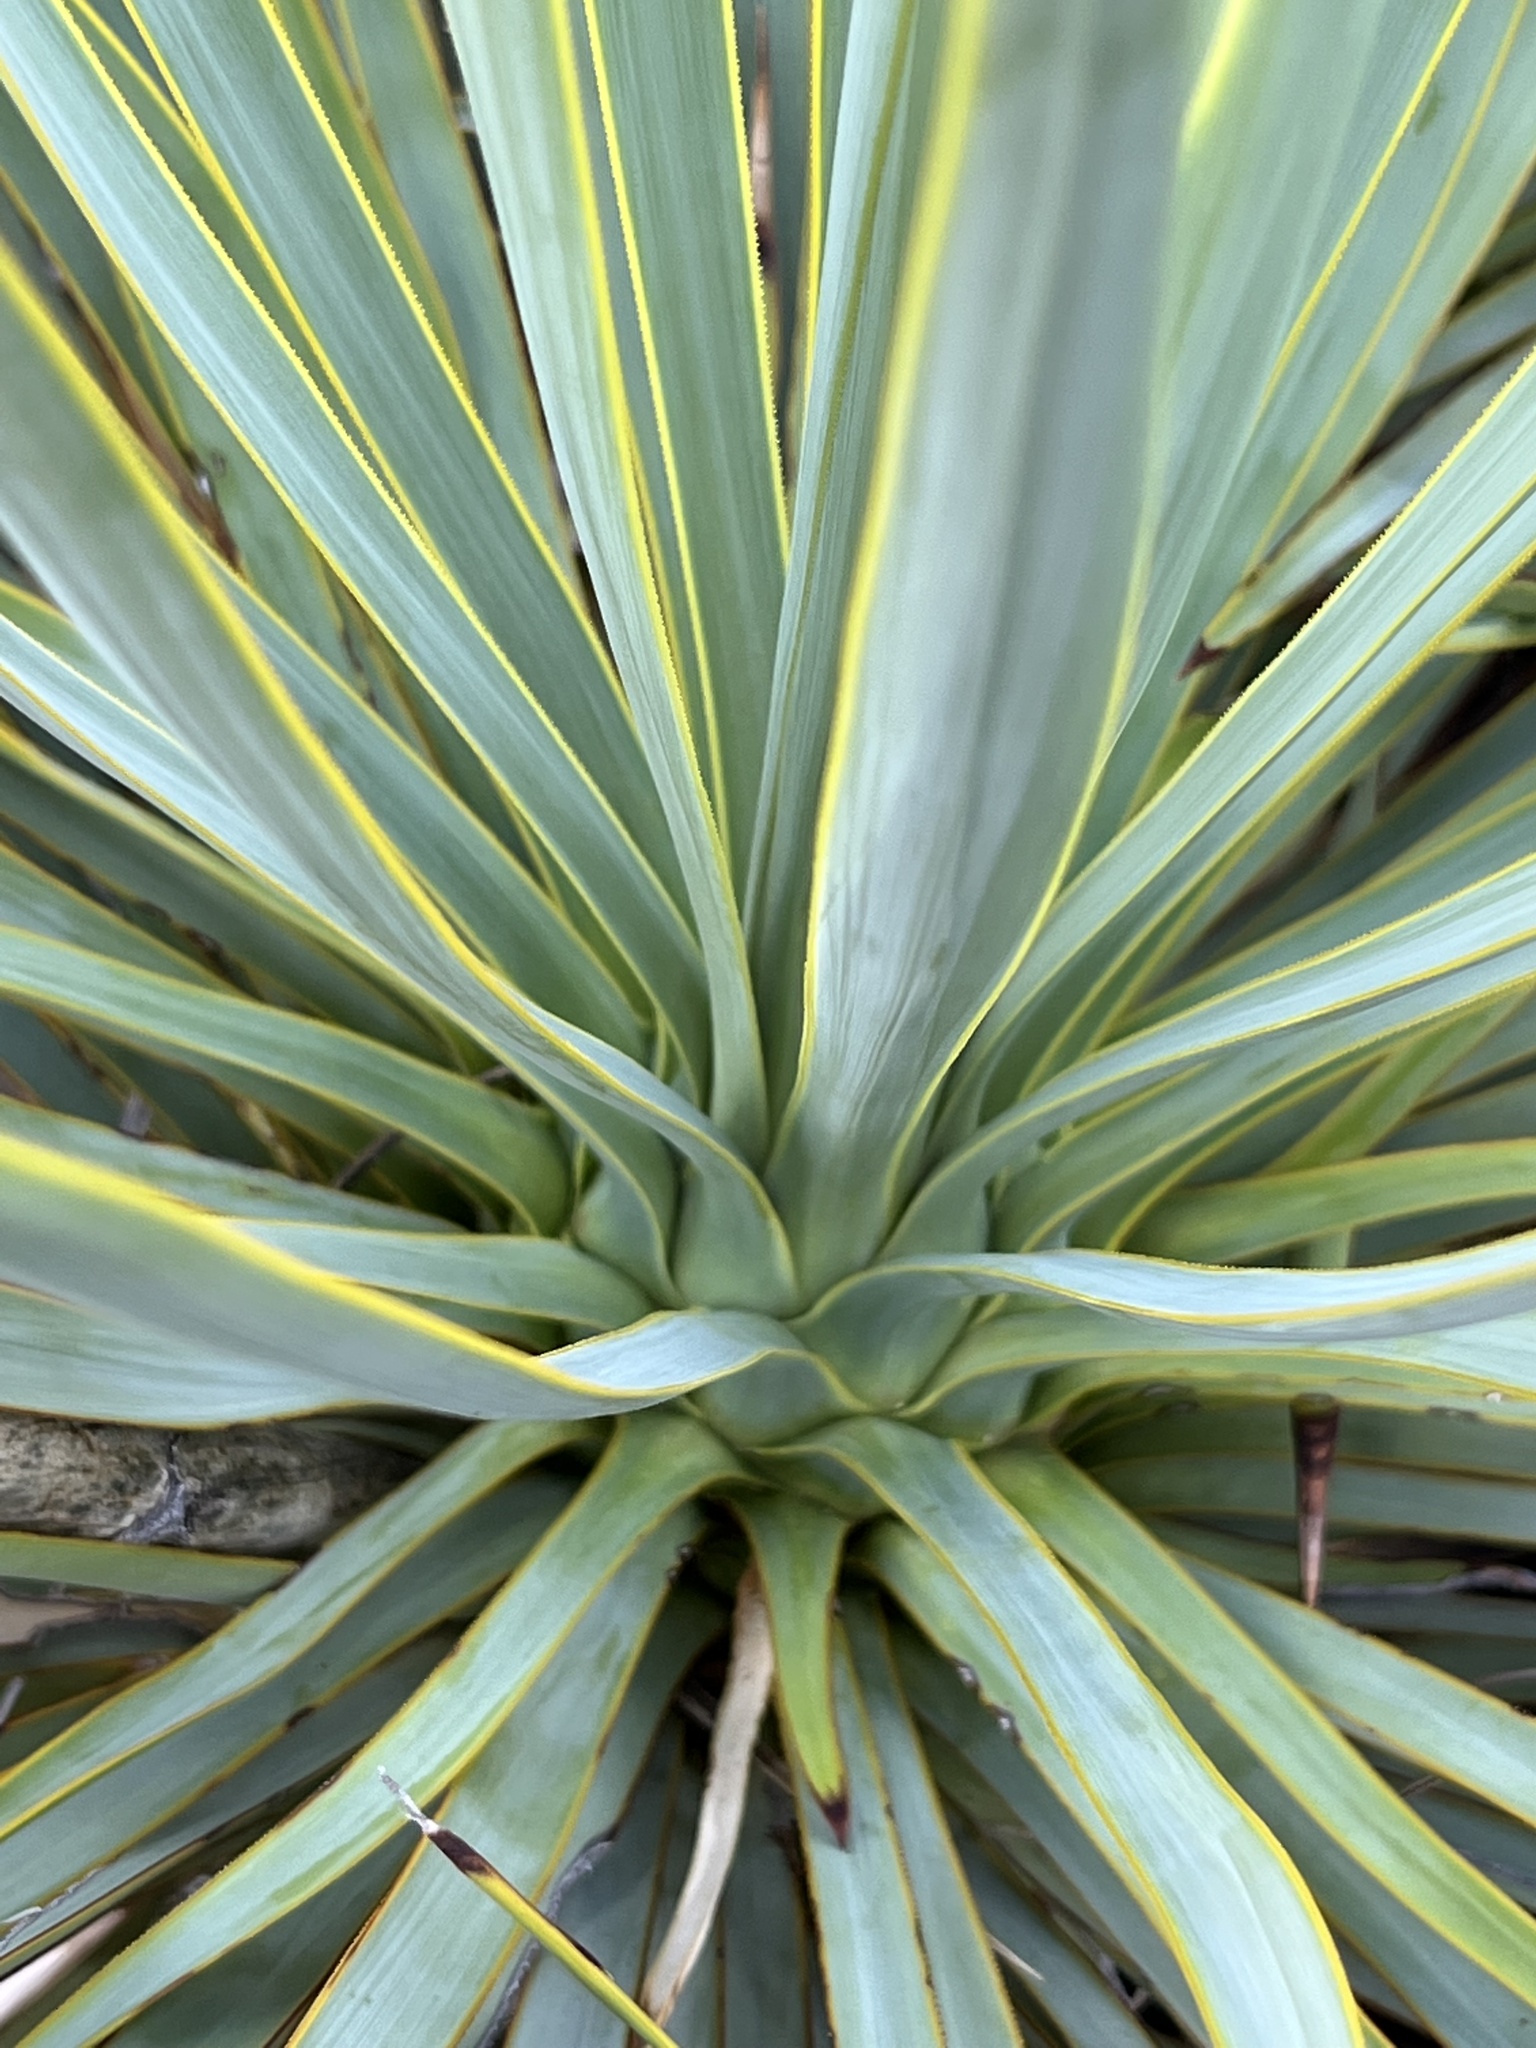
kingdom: Plantae
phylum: Tracheophyta
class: Liliopsida
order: Asparagales
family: Asparagaceae
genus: Yucca
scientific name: Yucca thompsoniana
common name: Trans-pecos yucca
